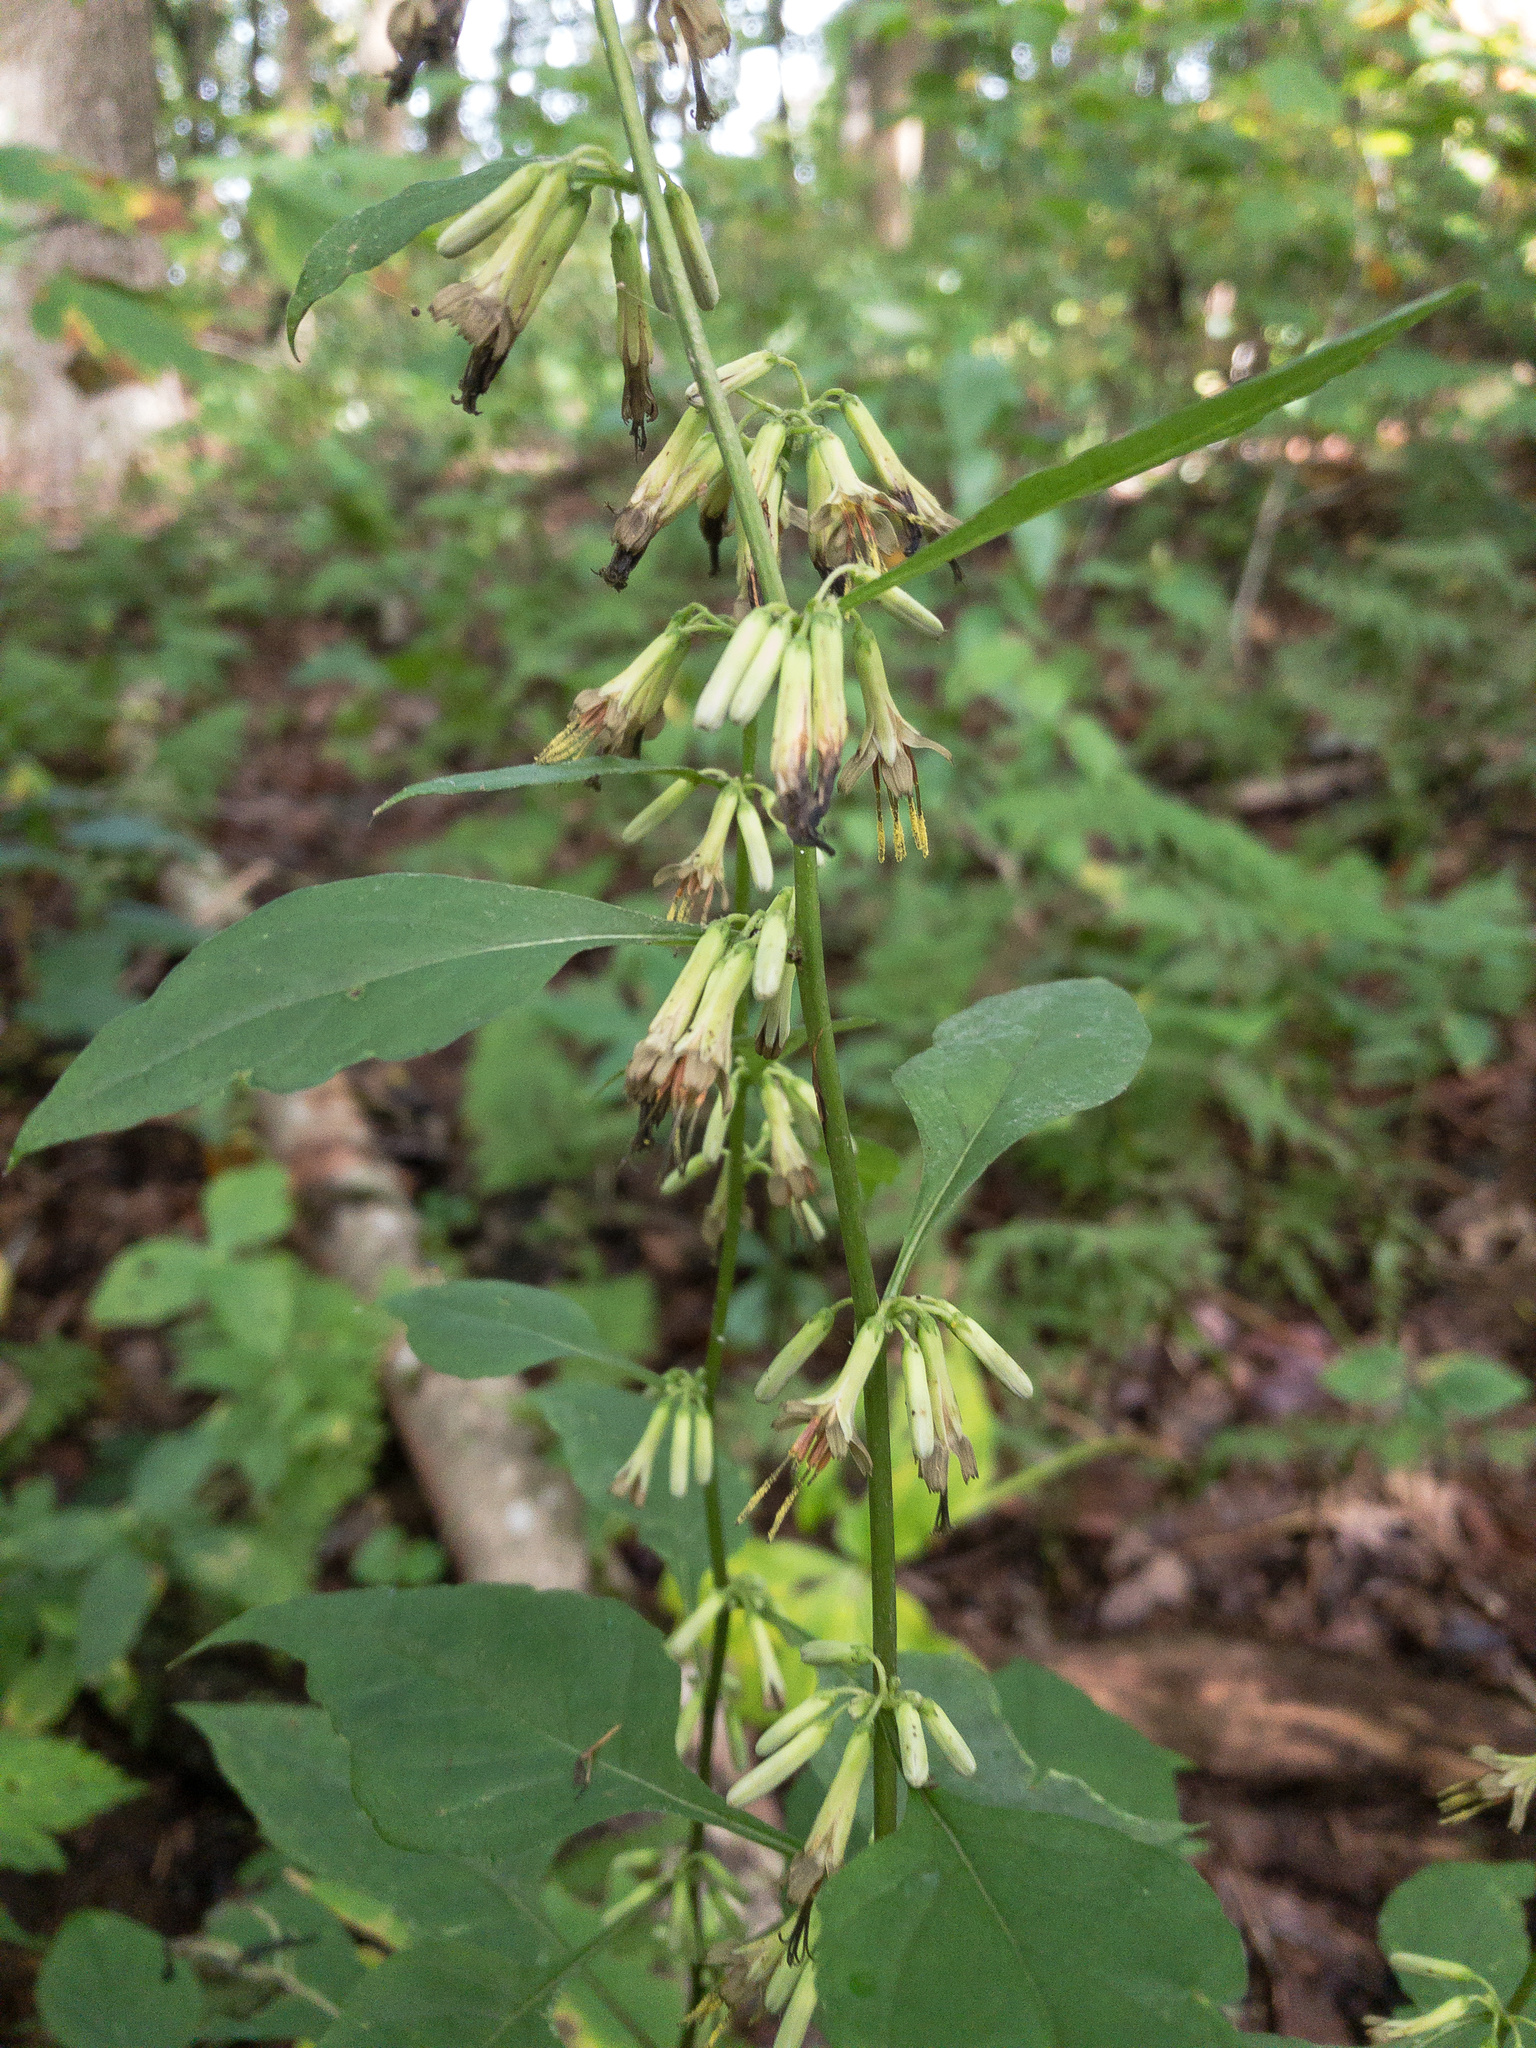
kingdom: Plantae
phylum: Tracheophyta
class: Magnoliopsida
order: Asterales
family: Asteraceae
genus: Nabalus
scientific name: Nabalus altissima
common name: Tall rattlesnakeroot
